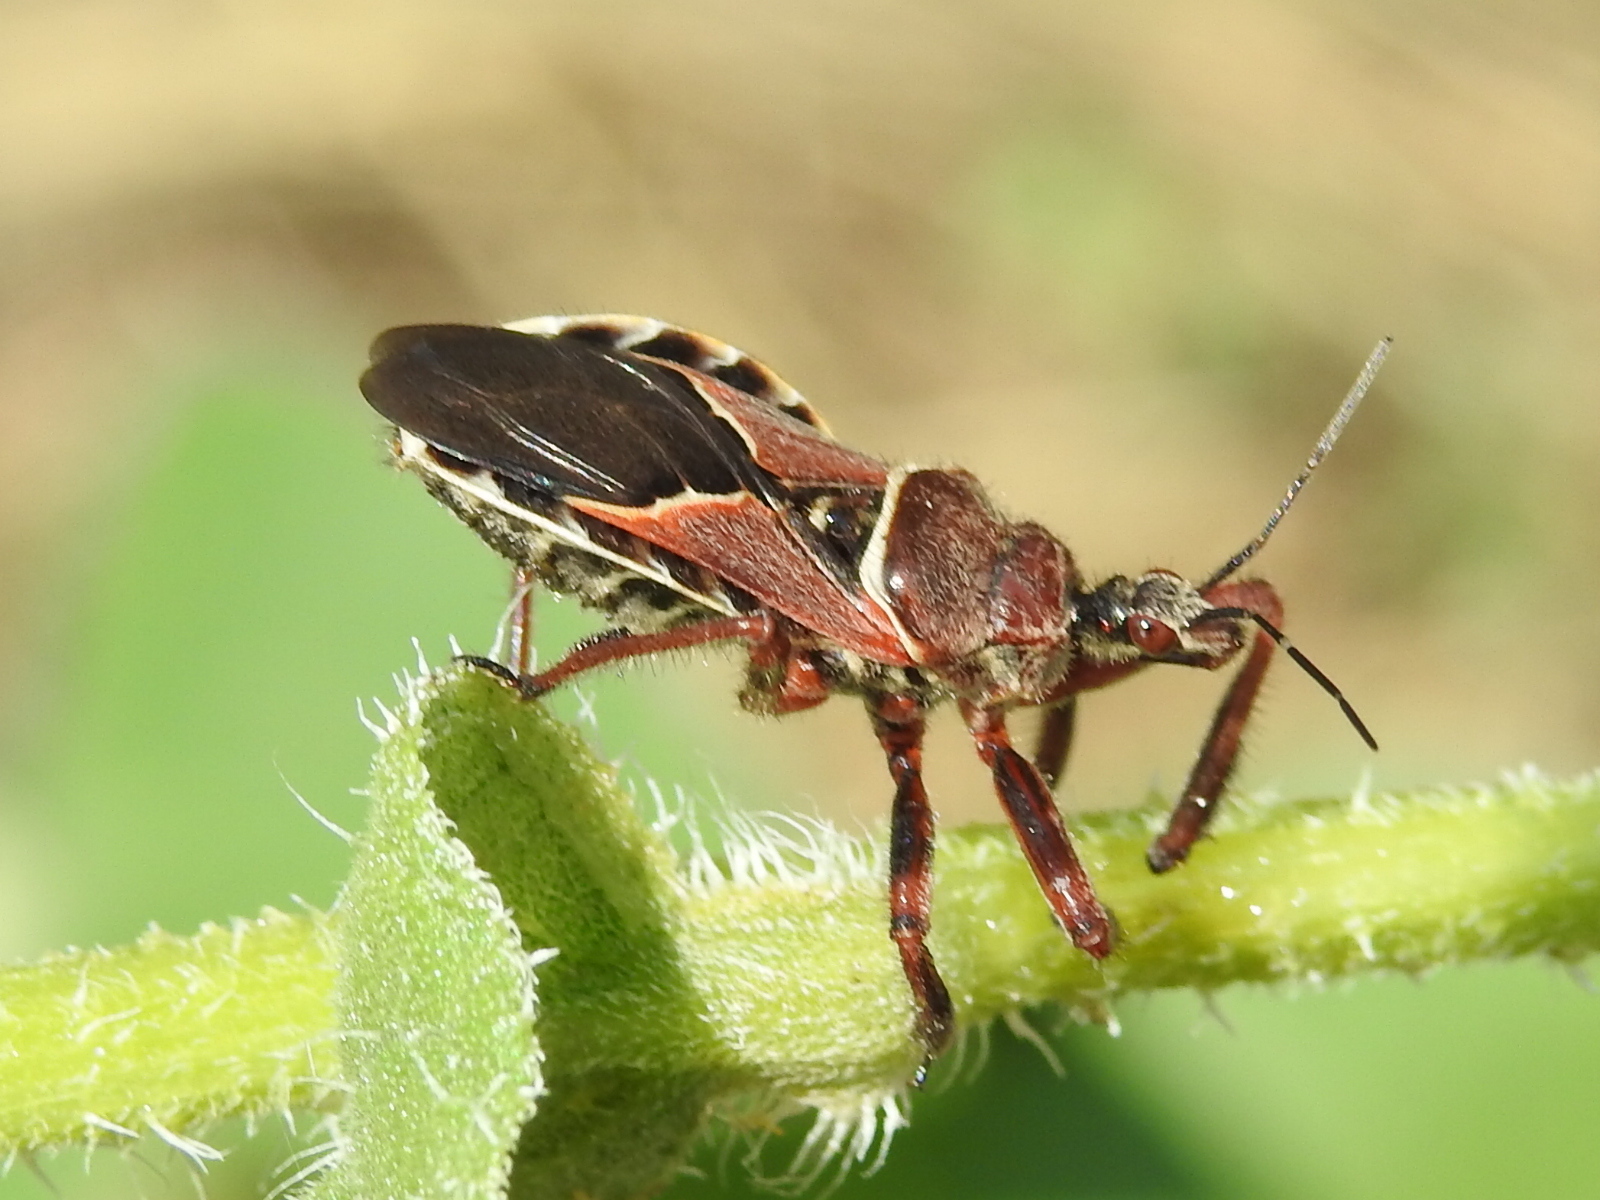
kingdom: Animalia
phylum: Arthropoda
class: Insecta
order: Hemiptera
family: Reduviidae
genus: Apiomerus
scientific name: Apiomerus spissipes
